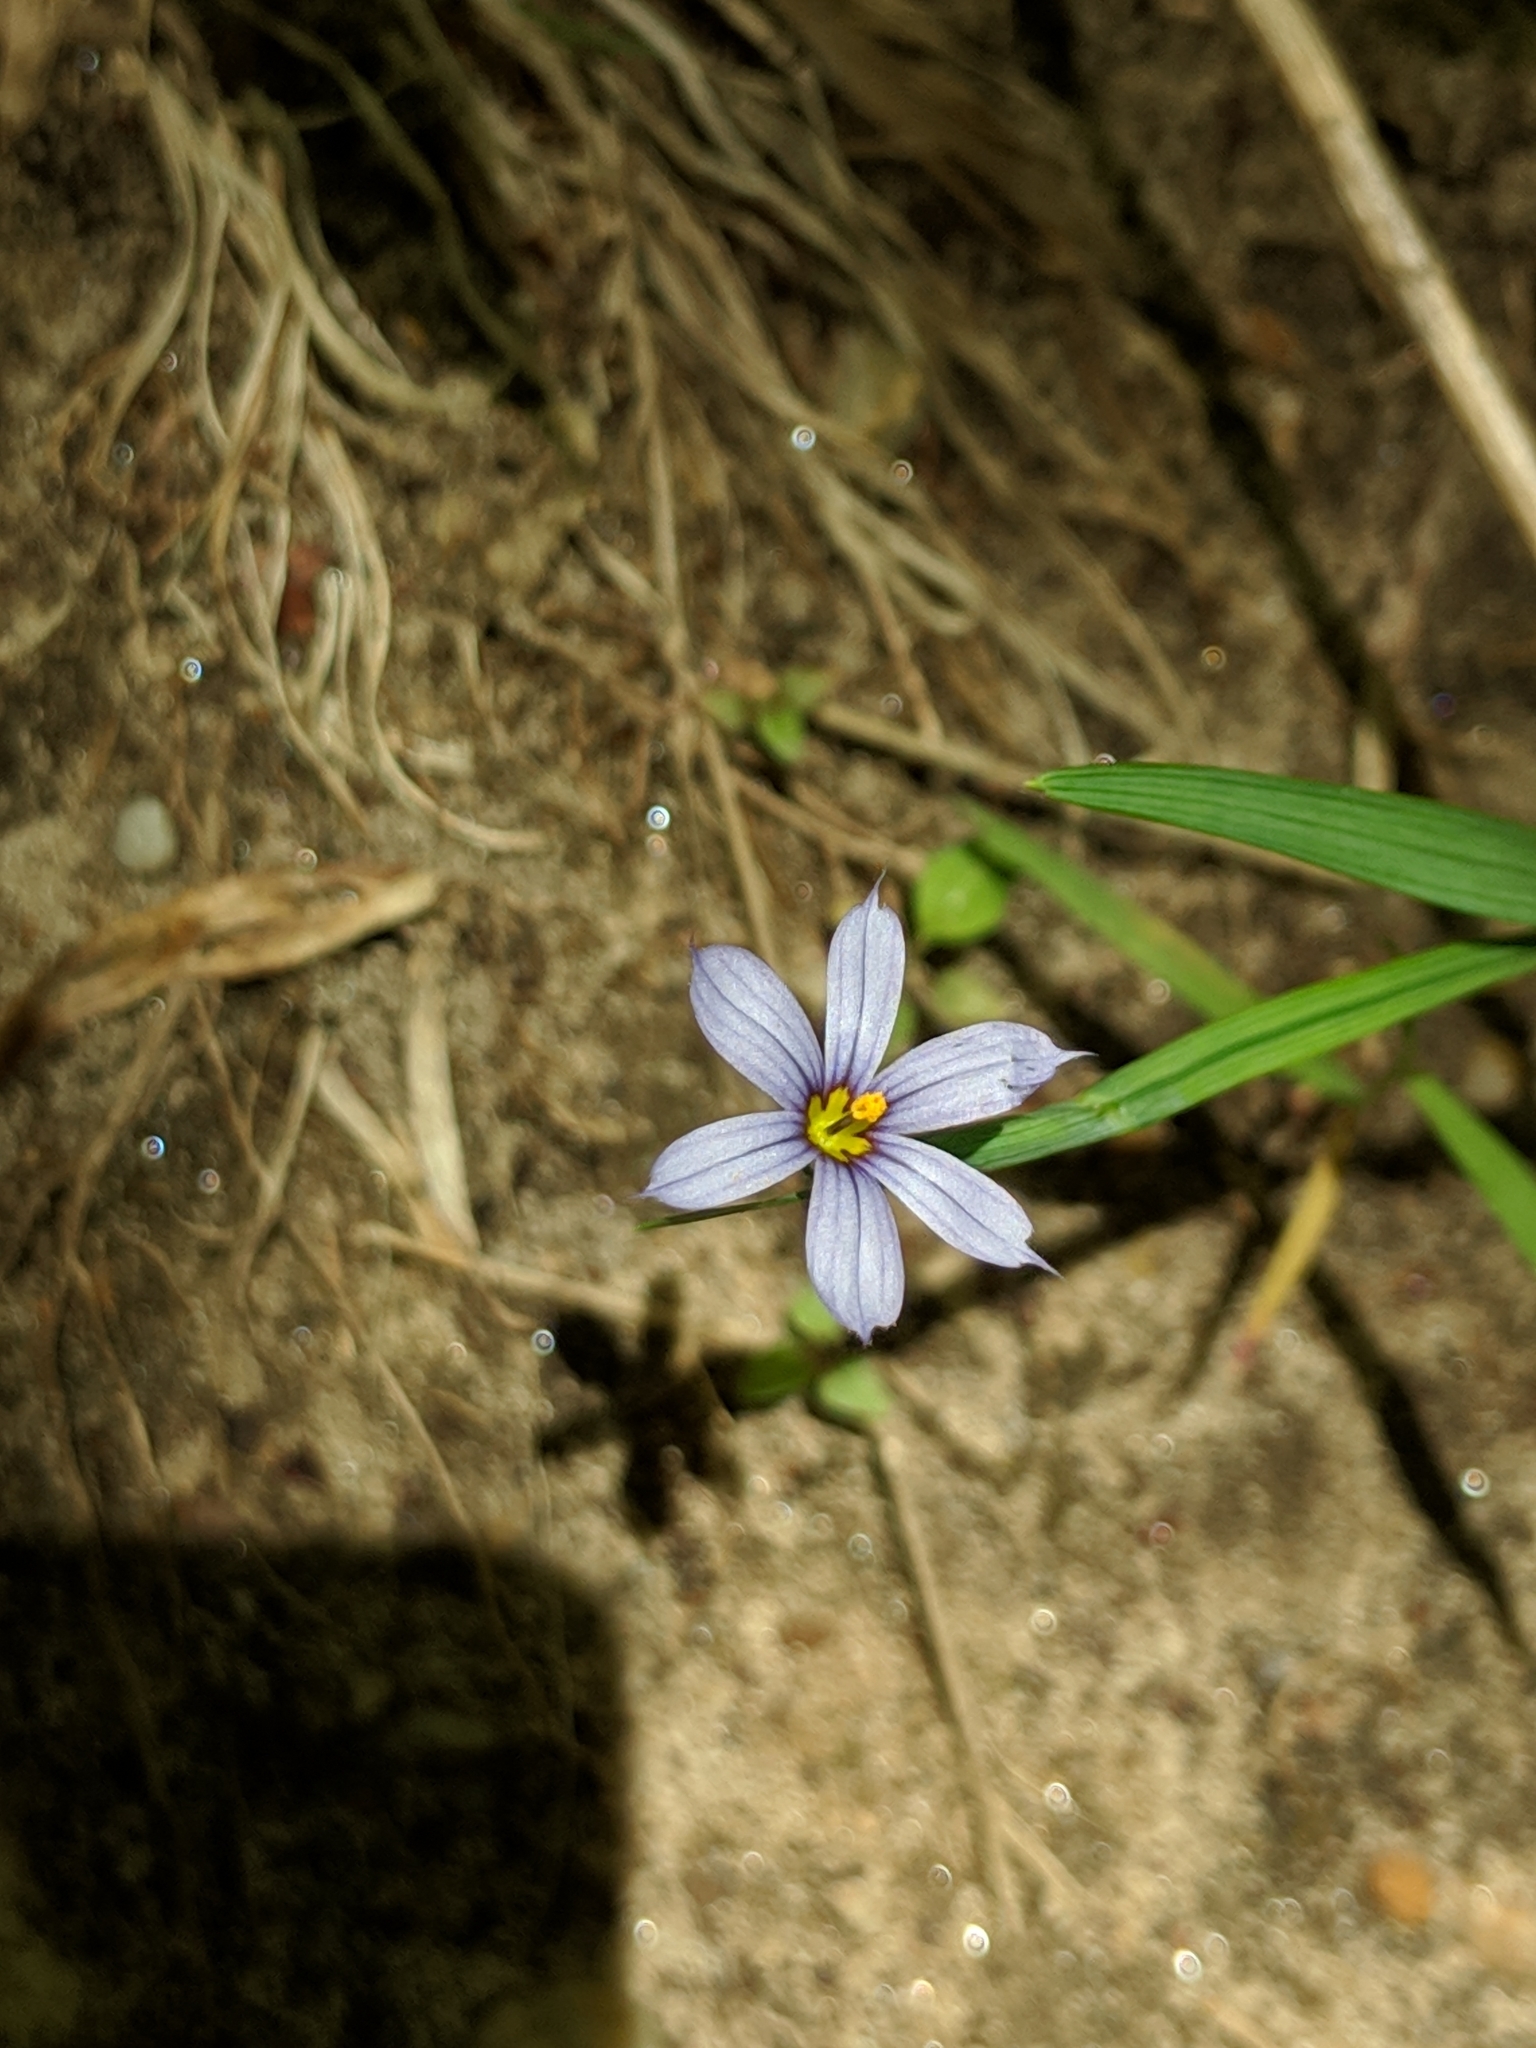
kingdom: Plantae
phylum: Tracheophyta
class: Liliopsida
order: Asparagales
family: Iridaceae
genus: Sisyrinchium
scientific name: Sisyrinchium angustifolium
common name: Narrow-leaf blue-eyed-grass
